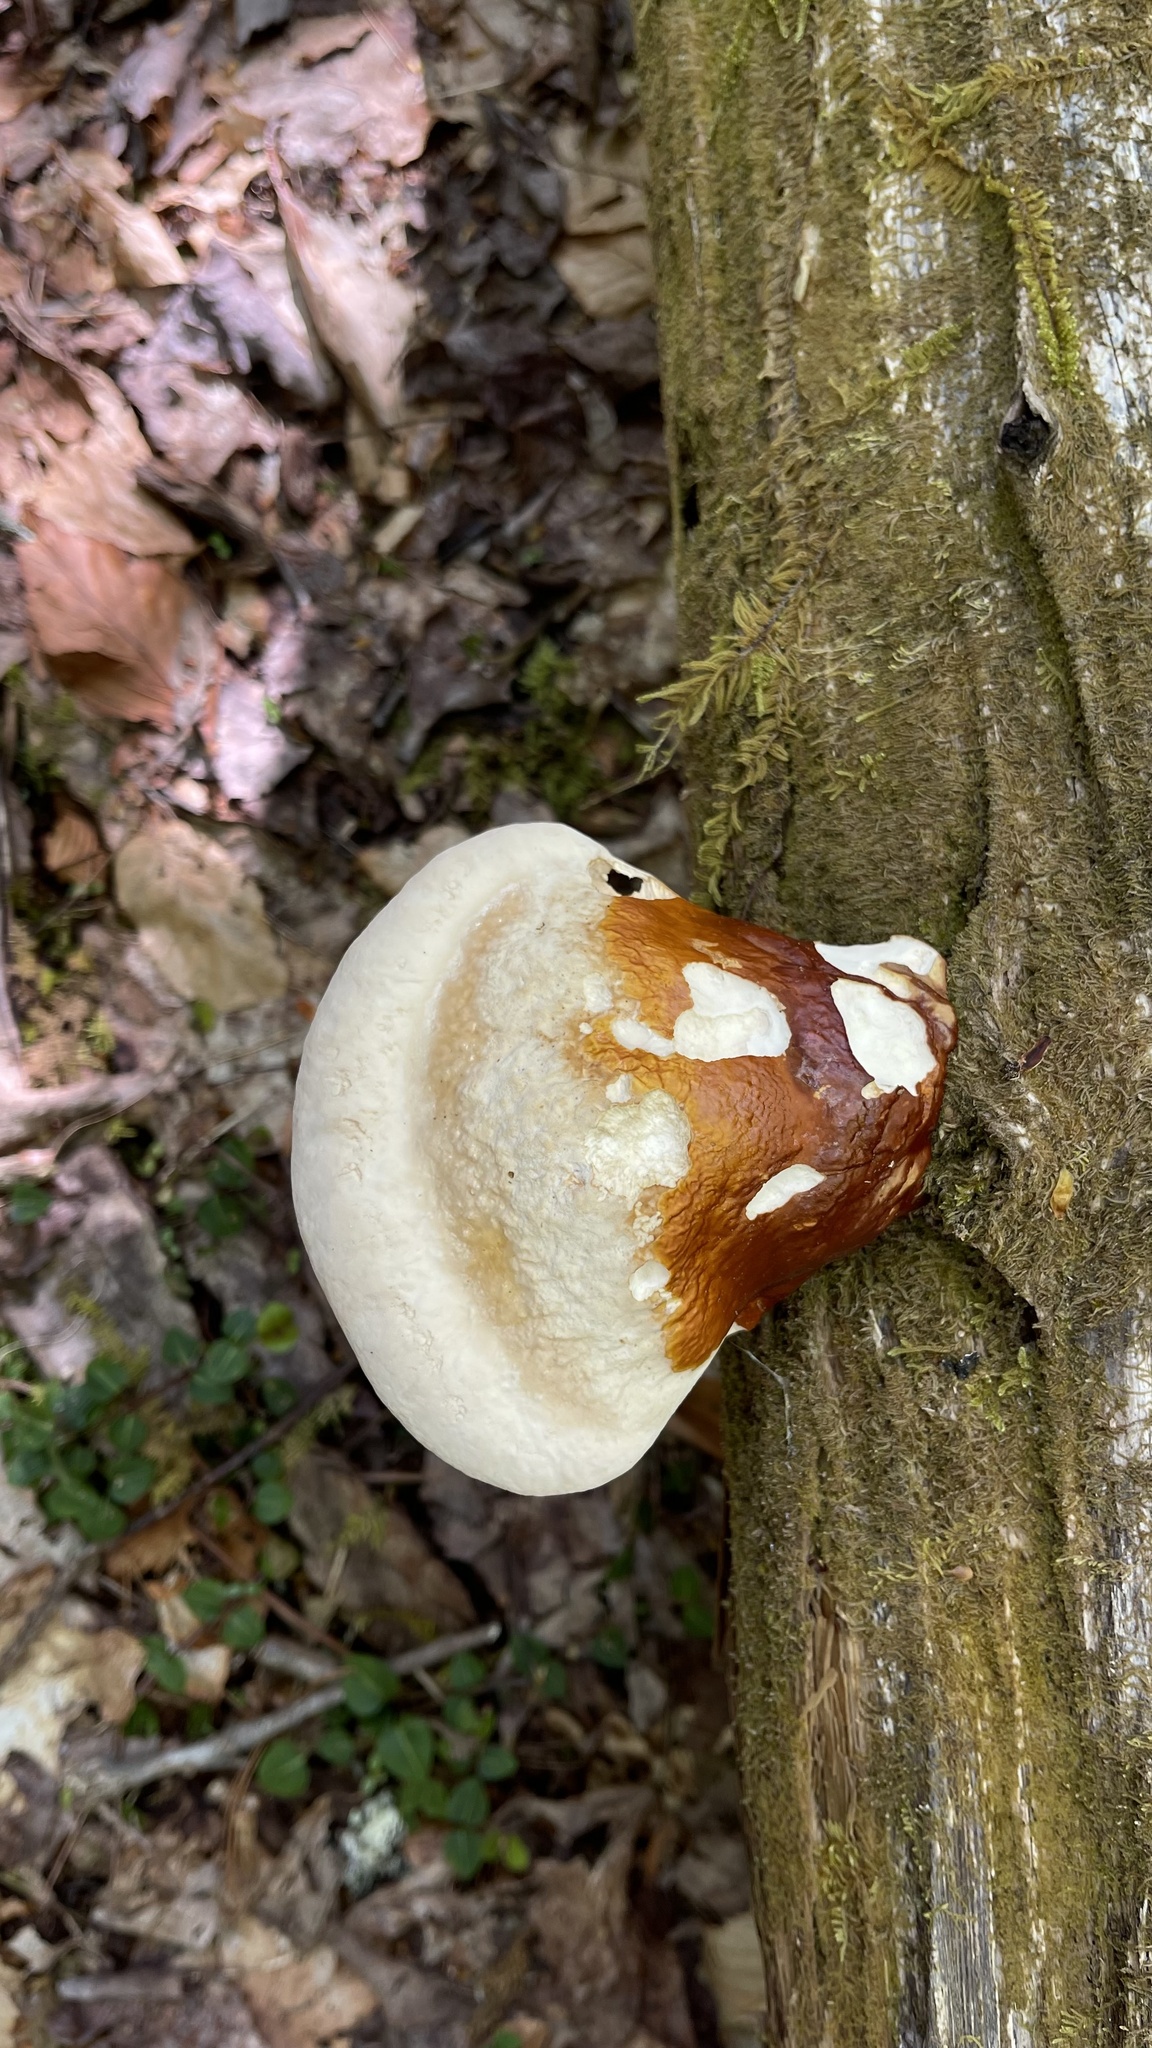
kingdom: Fungi
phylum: Basidiomycota
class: Agaricomycetes
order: Polyporales
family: Polyporaceae
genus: Ganoderma
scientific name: Ganoderma tsugae
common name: Hemlock varnish shelf
